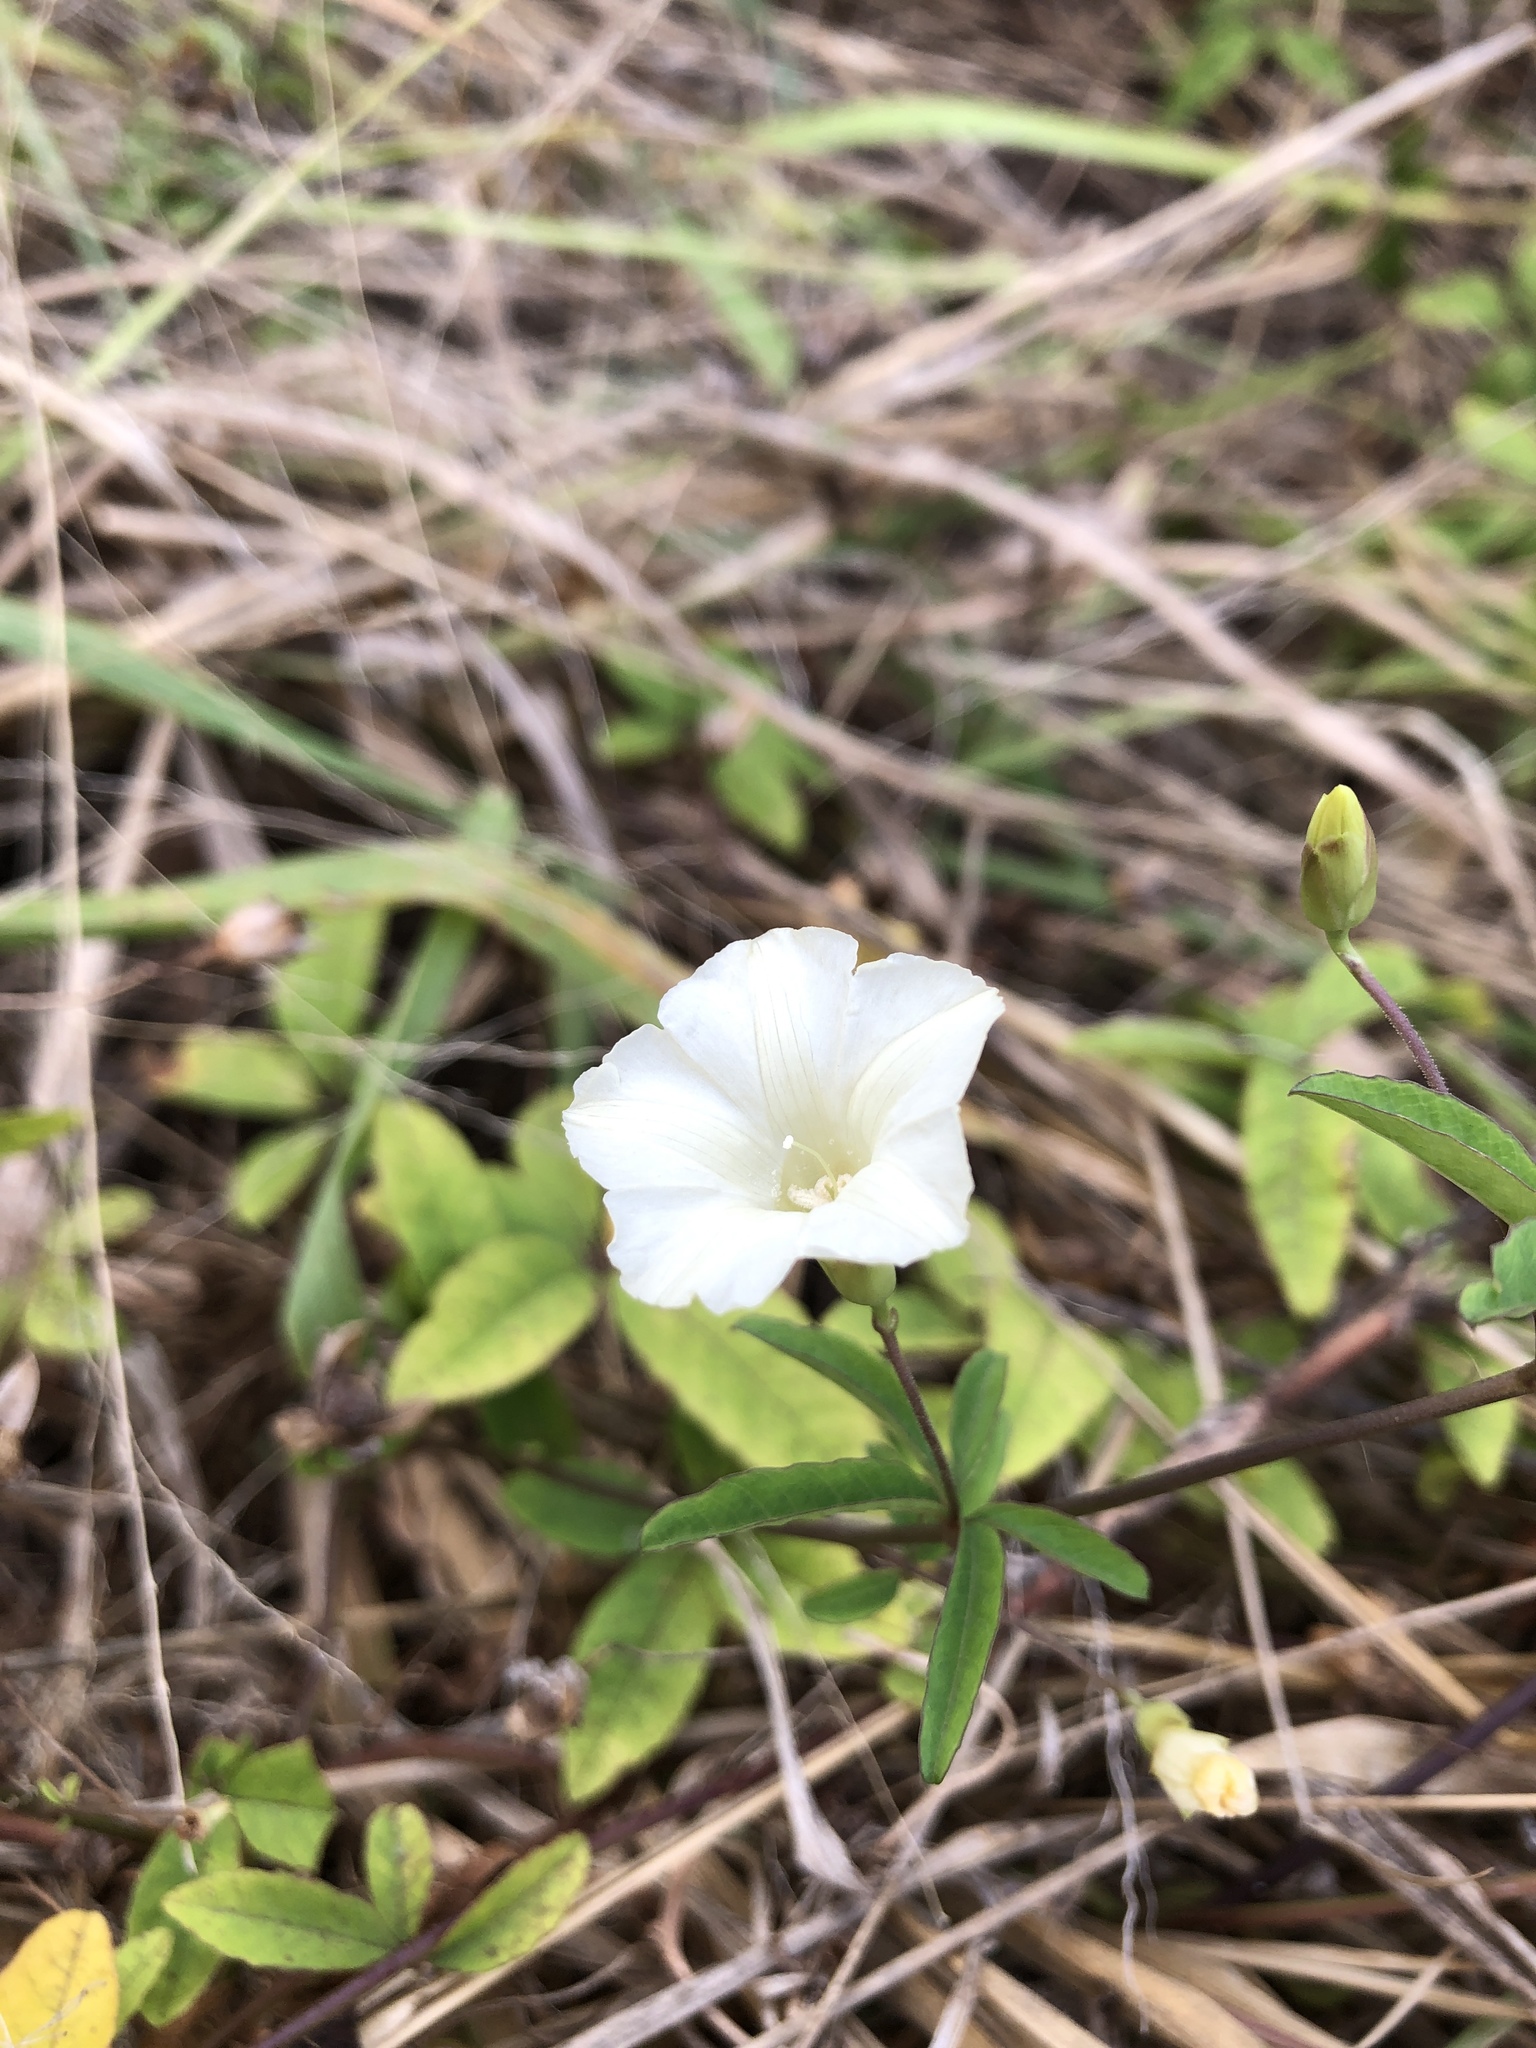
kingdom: Plantae
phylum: Tracheophyta
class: Magnoliopsida
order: Solanales
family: Convolvulaceae
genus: Distimake
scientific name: Distimake quinquefolius
